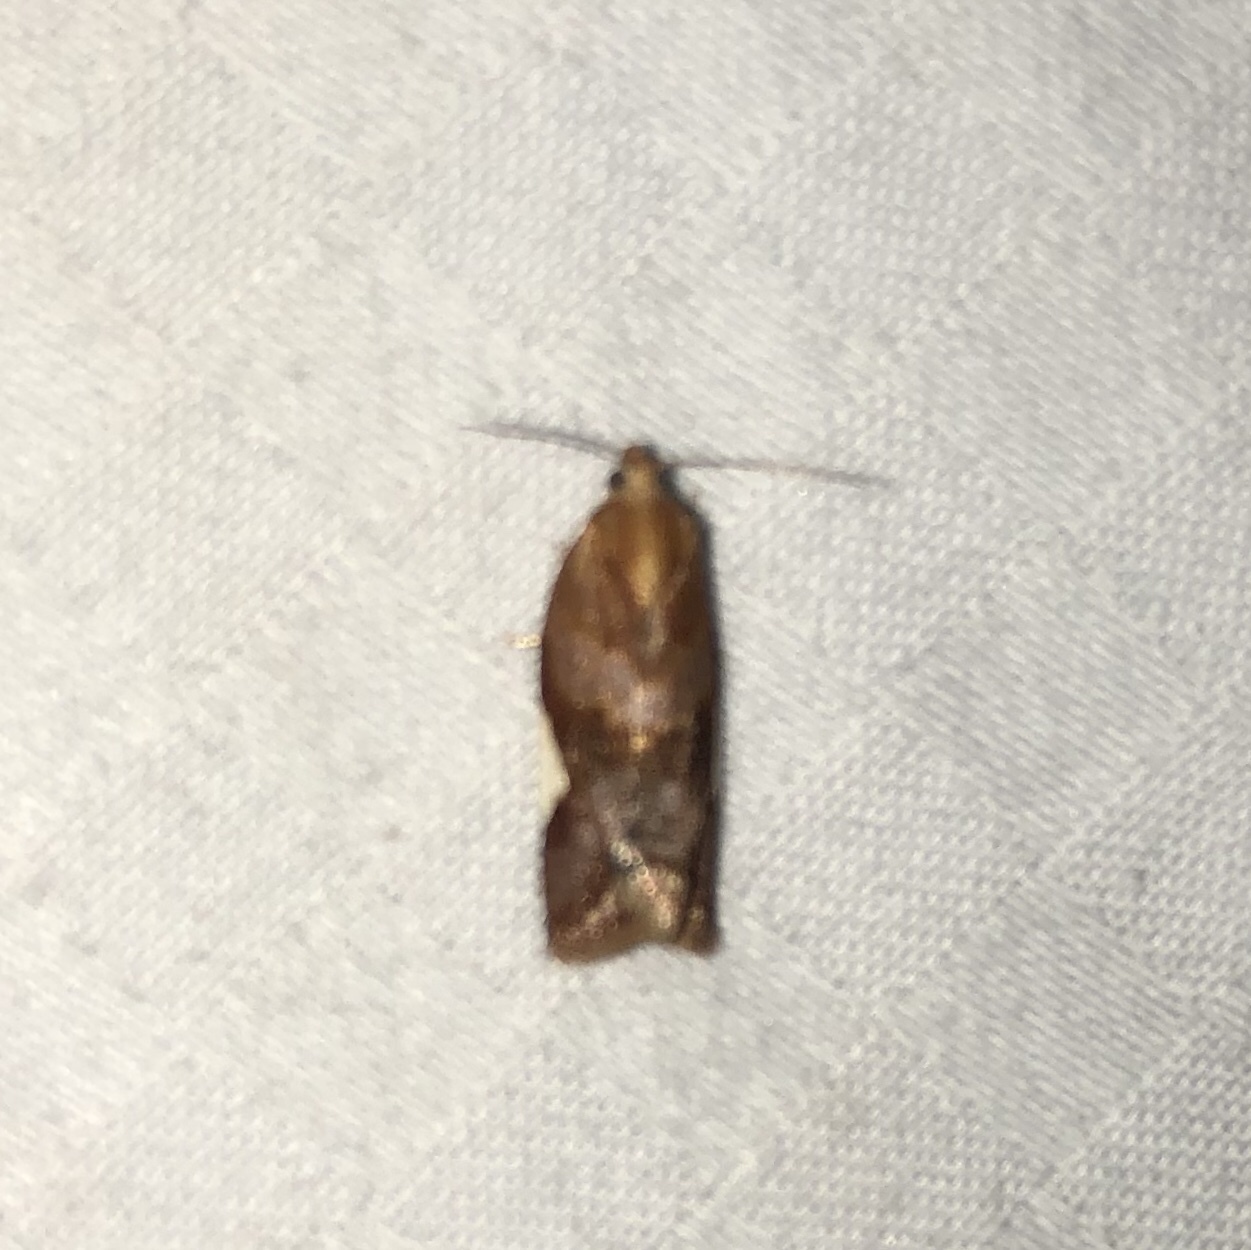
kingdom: Animalia
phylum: Arthropoda
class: Insecta
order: Lepidoptera
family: Tortricidae
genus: Clepsis
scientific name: Clepsis persicana
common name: White triangle tortrix
